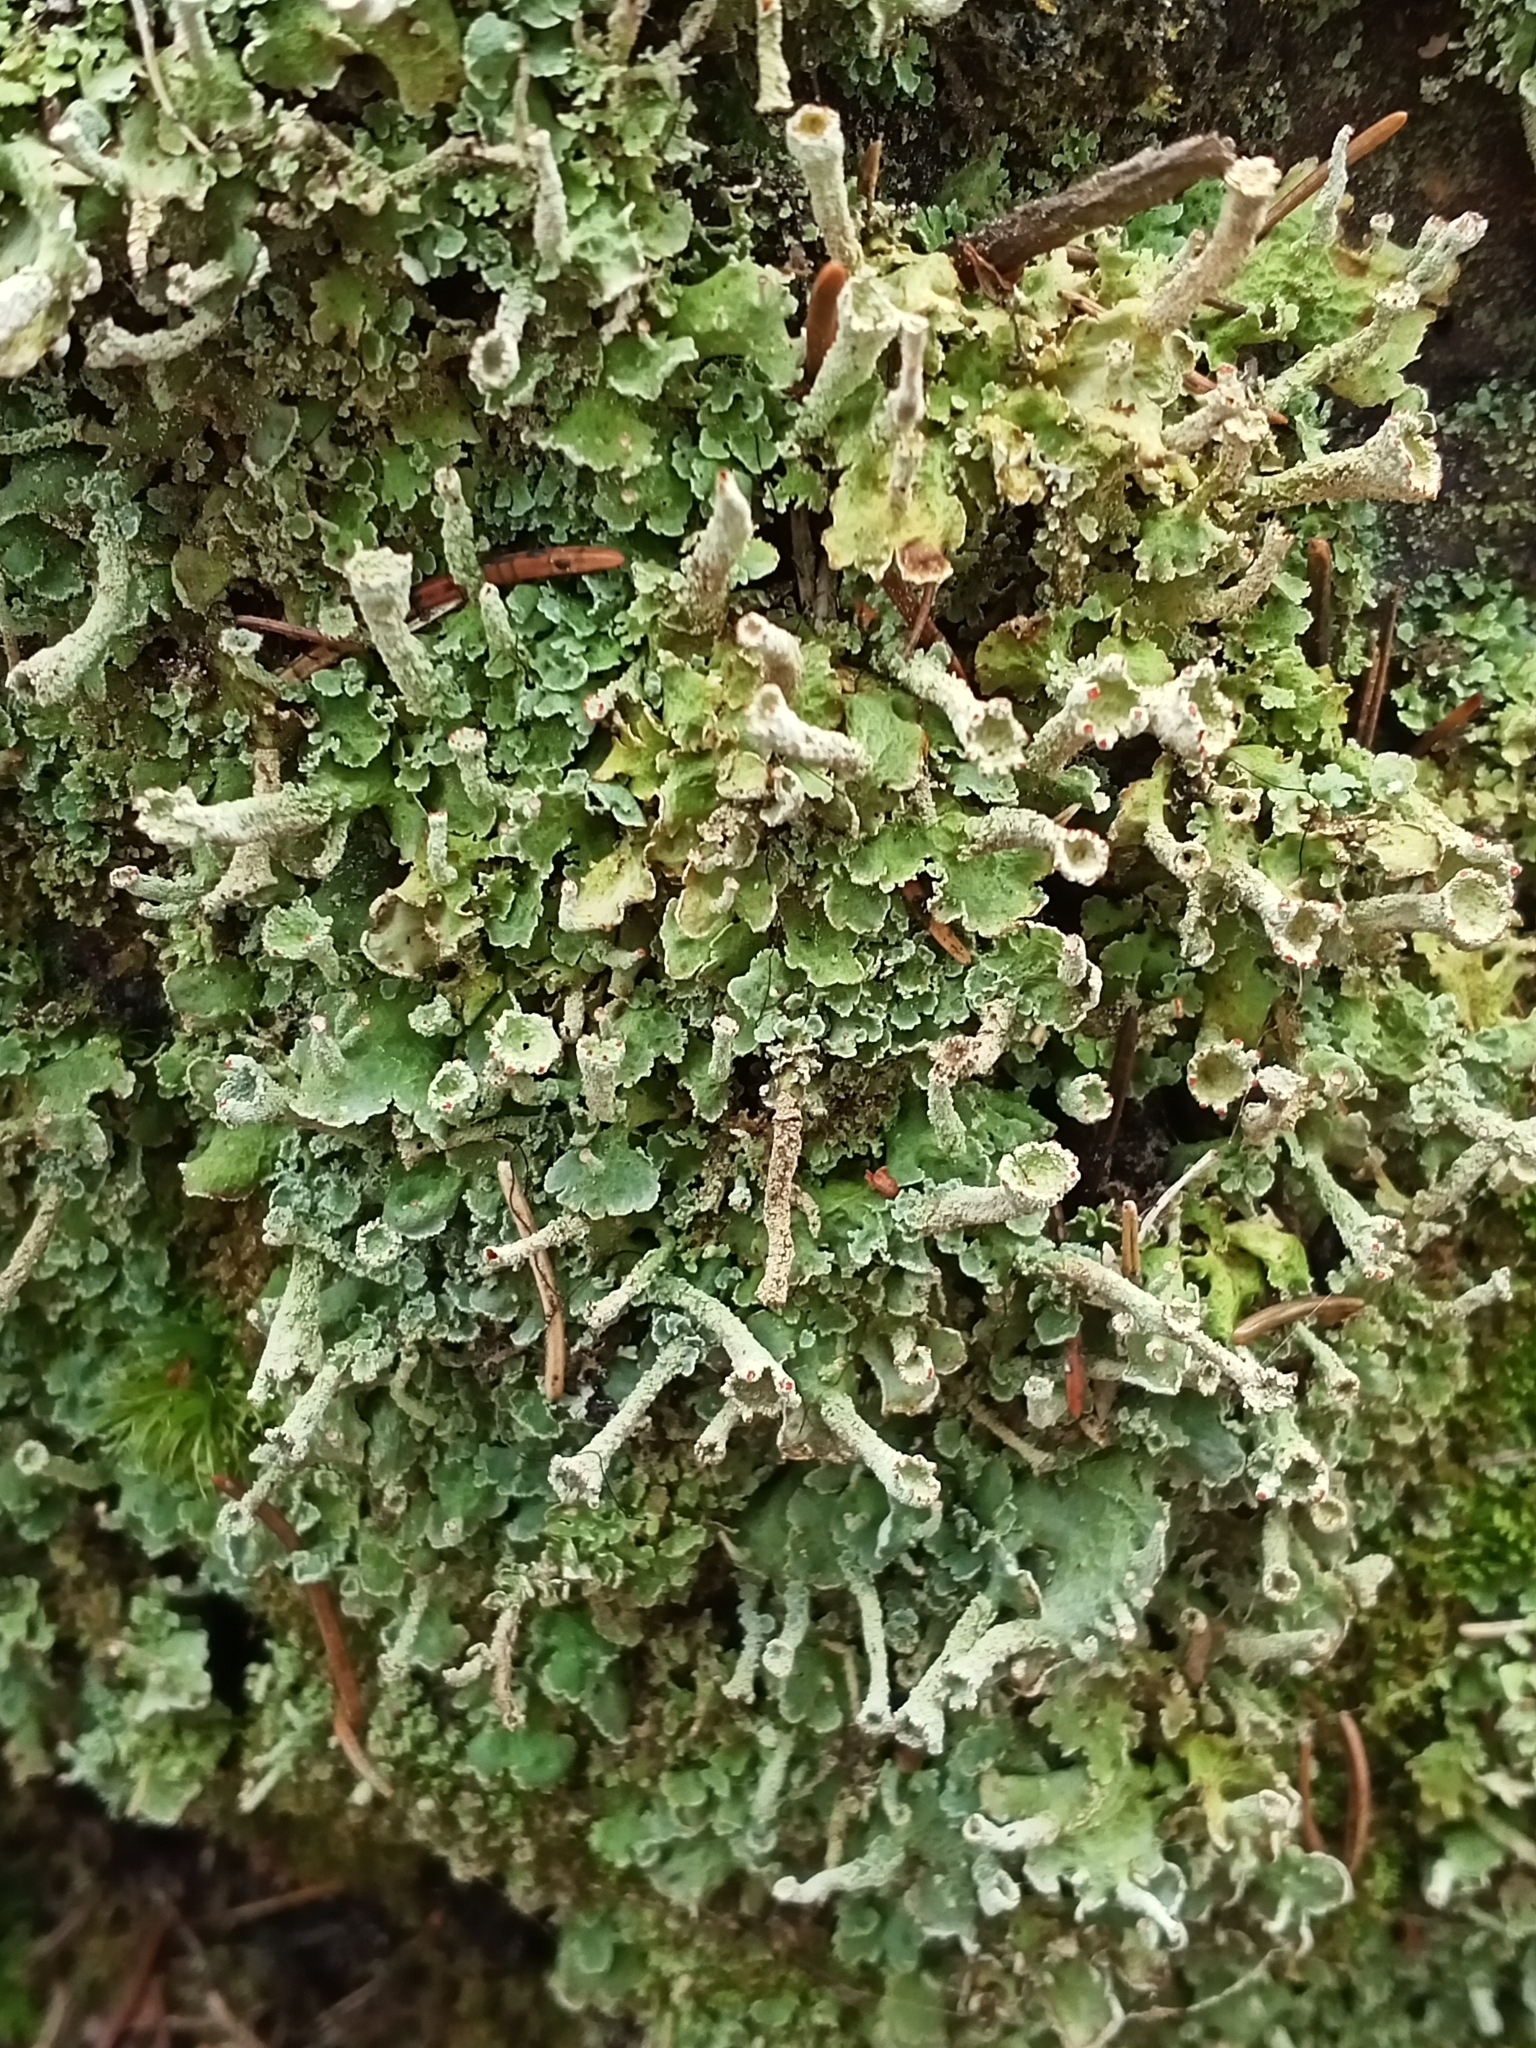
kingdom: Fungi
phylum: Ascomycota
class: Lecanoromycetes
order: Lecanorales
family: Cladoniaceae
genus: Cladonia
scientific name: Cladonia digitata
